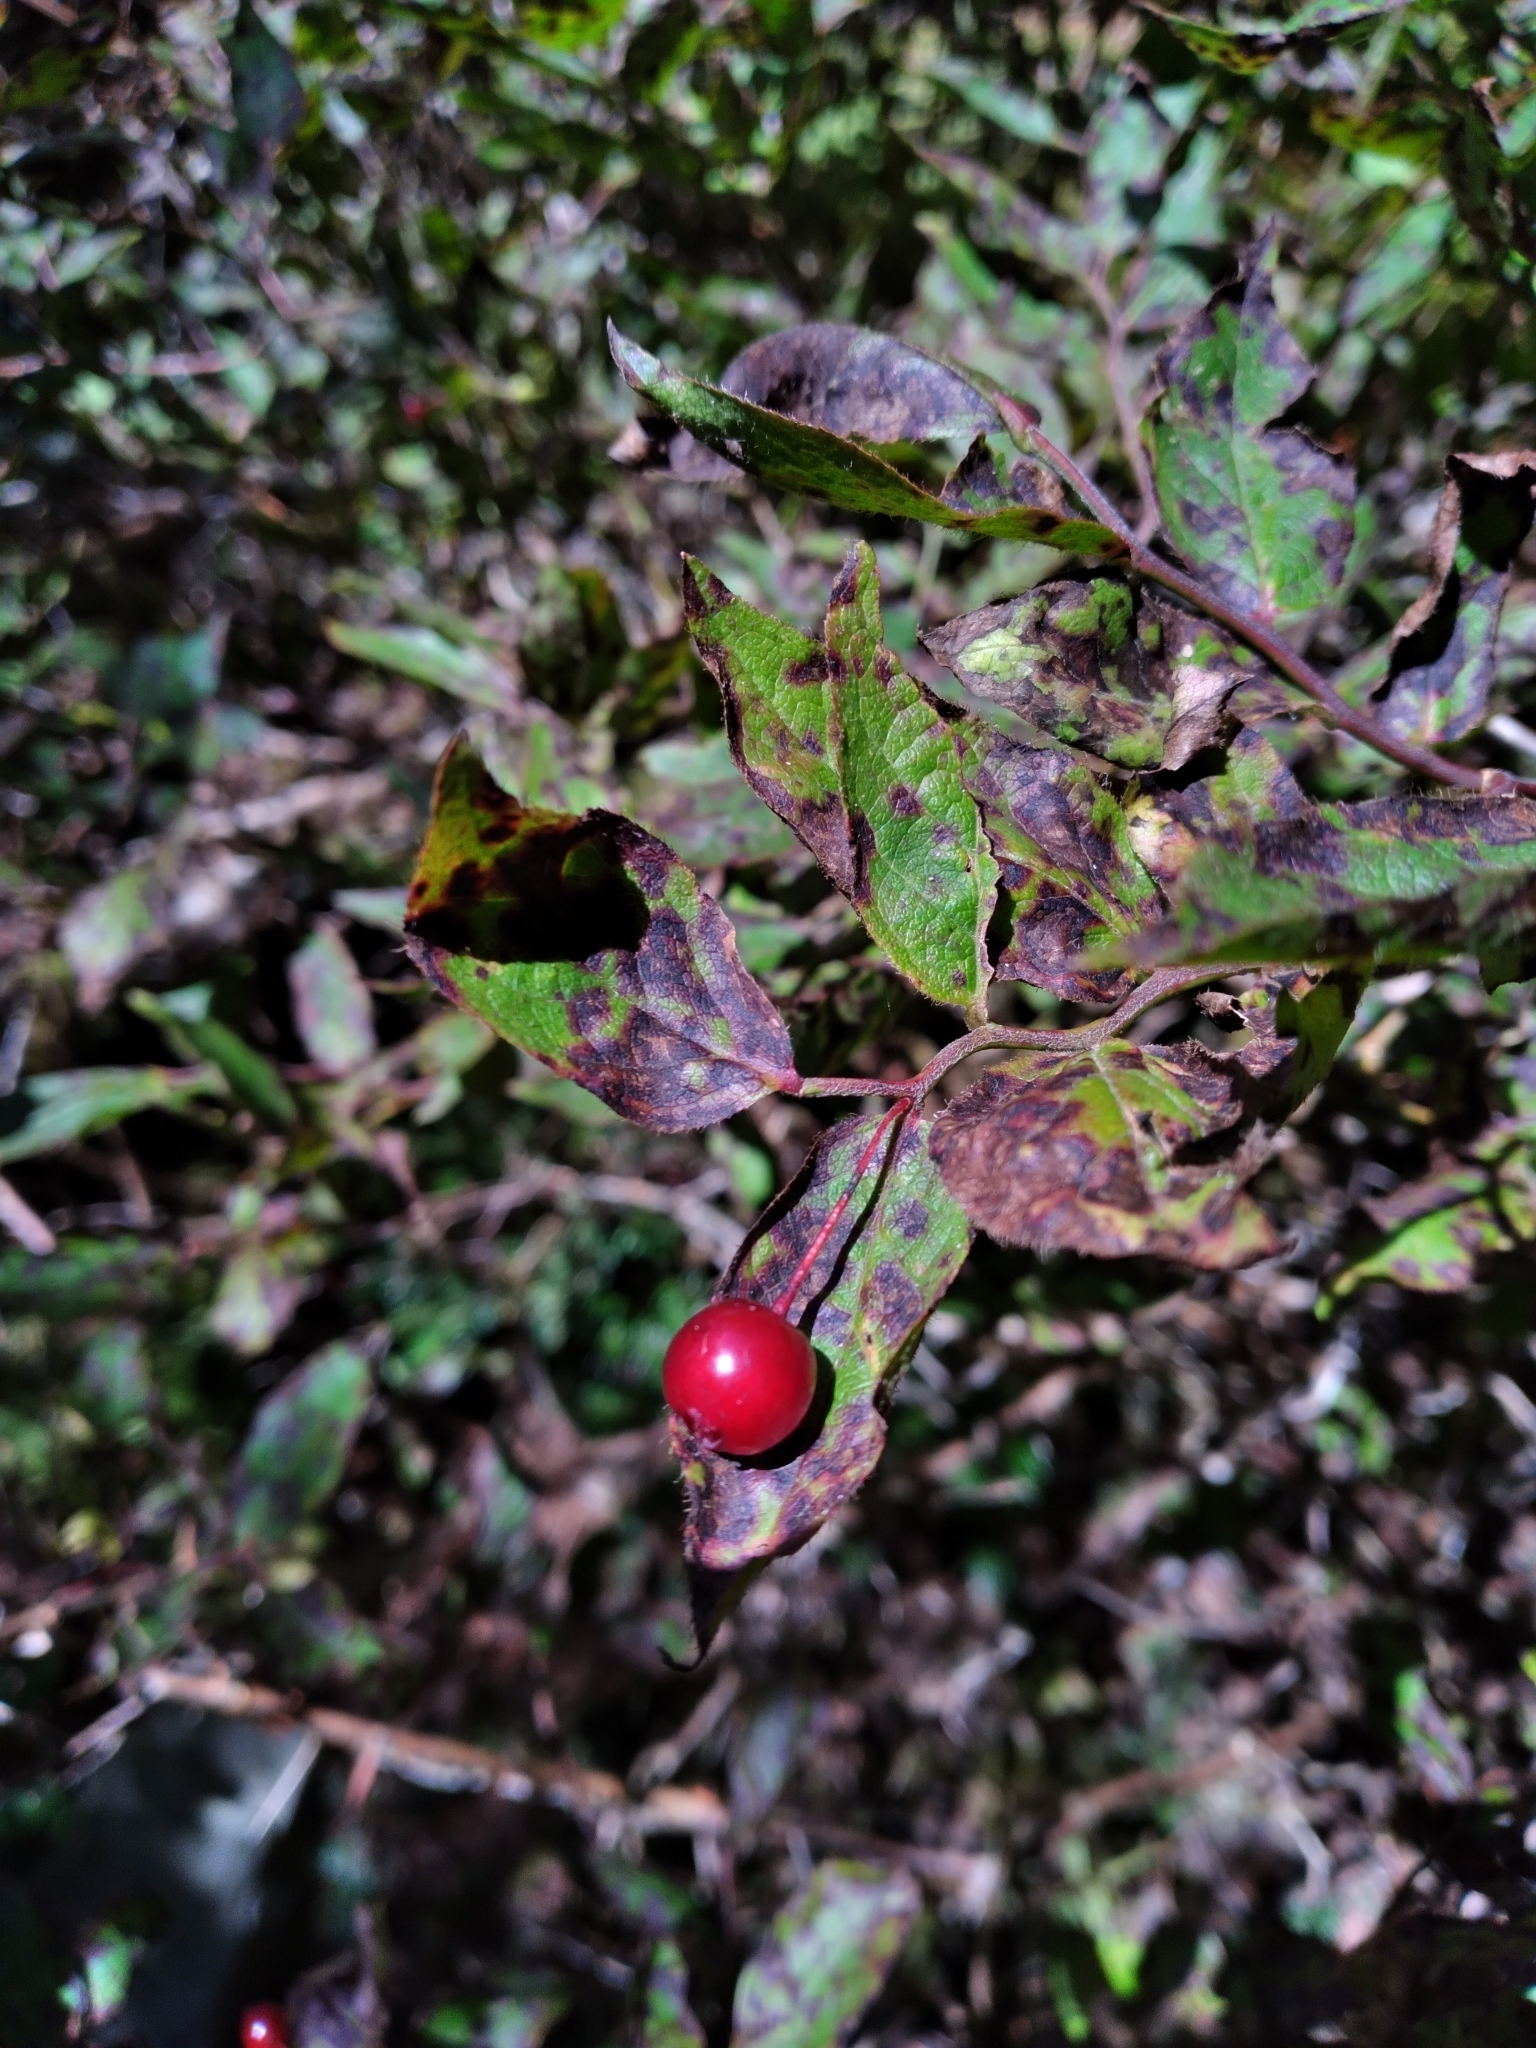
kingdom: Plantae
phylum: Tracheophyta
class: Magnoliopsida
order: Ericales
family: Ericaceae
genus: Vaccinium
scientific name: Vaccinium erythrocarpum
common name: Bearberry
